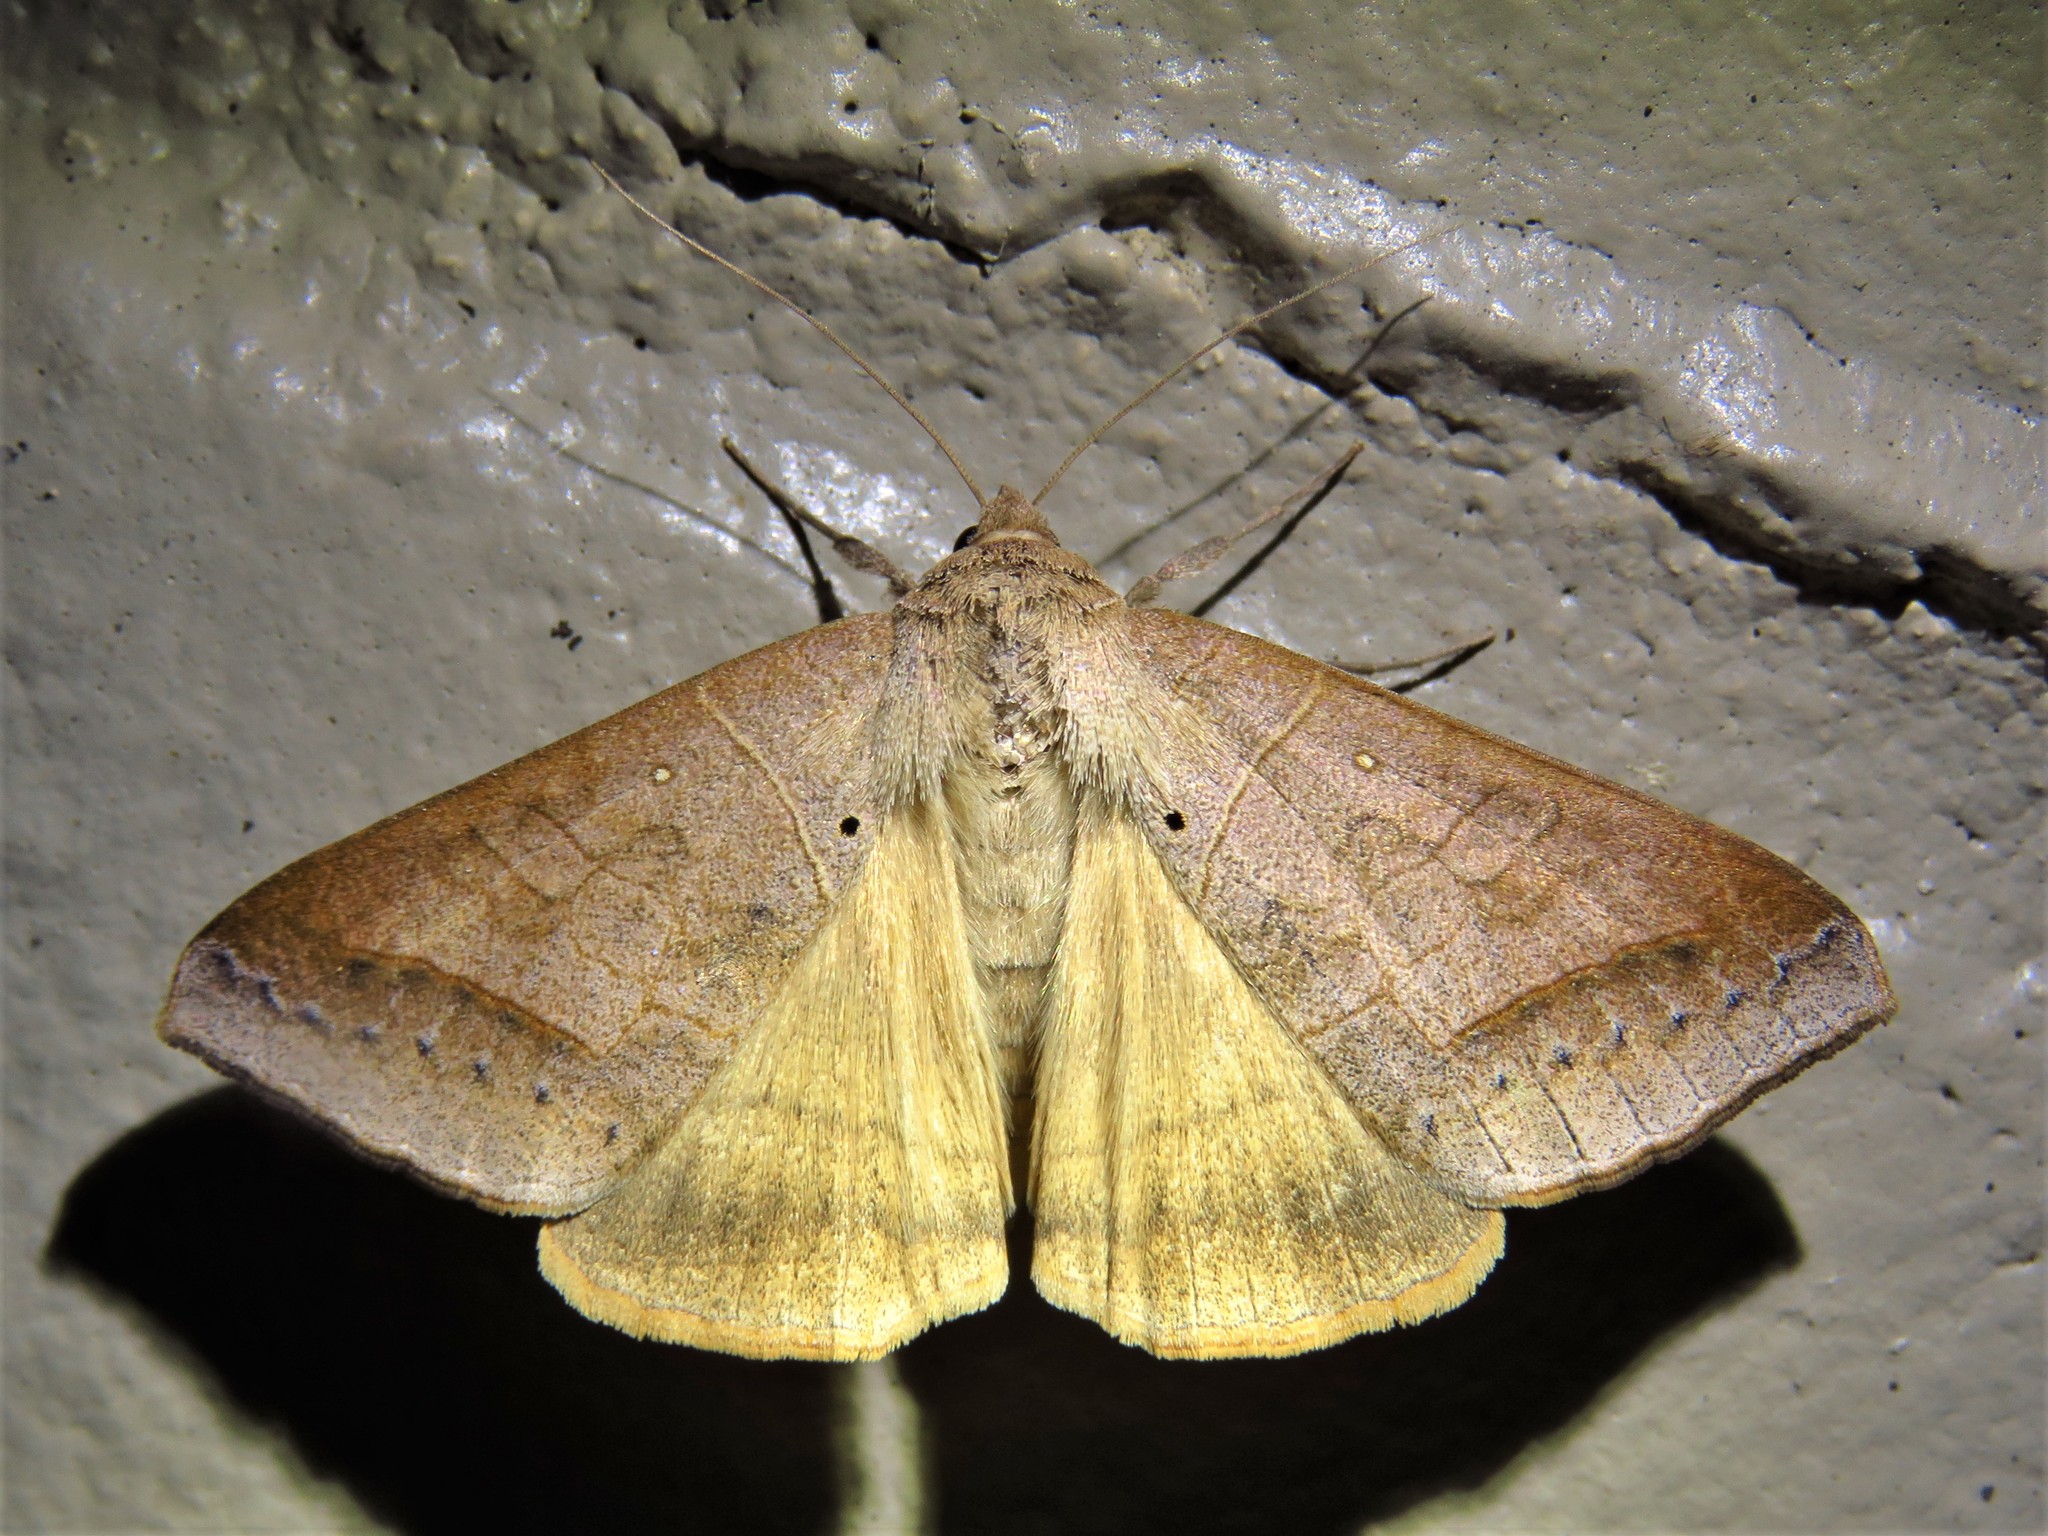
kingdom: Animalia
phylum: Arthropoda
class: Insecta
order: Lepidoptera
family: Erebidae
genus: Mocis
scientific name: Mocis marcida
